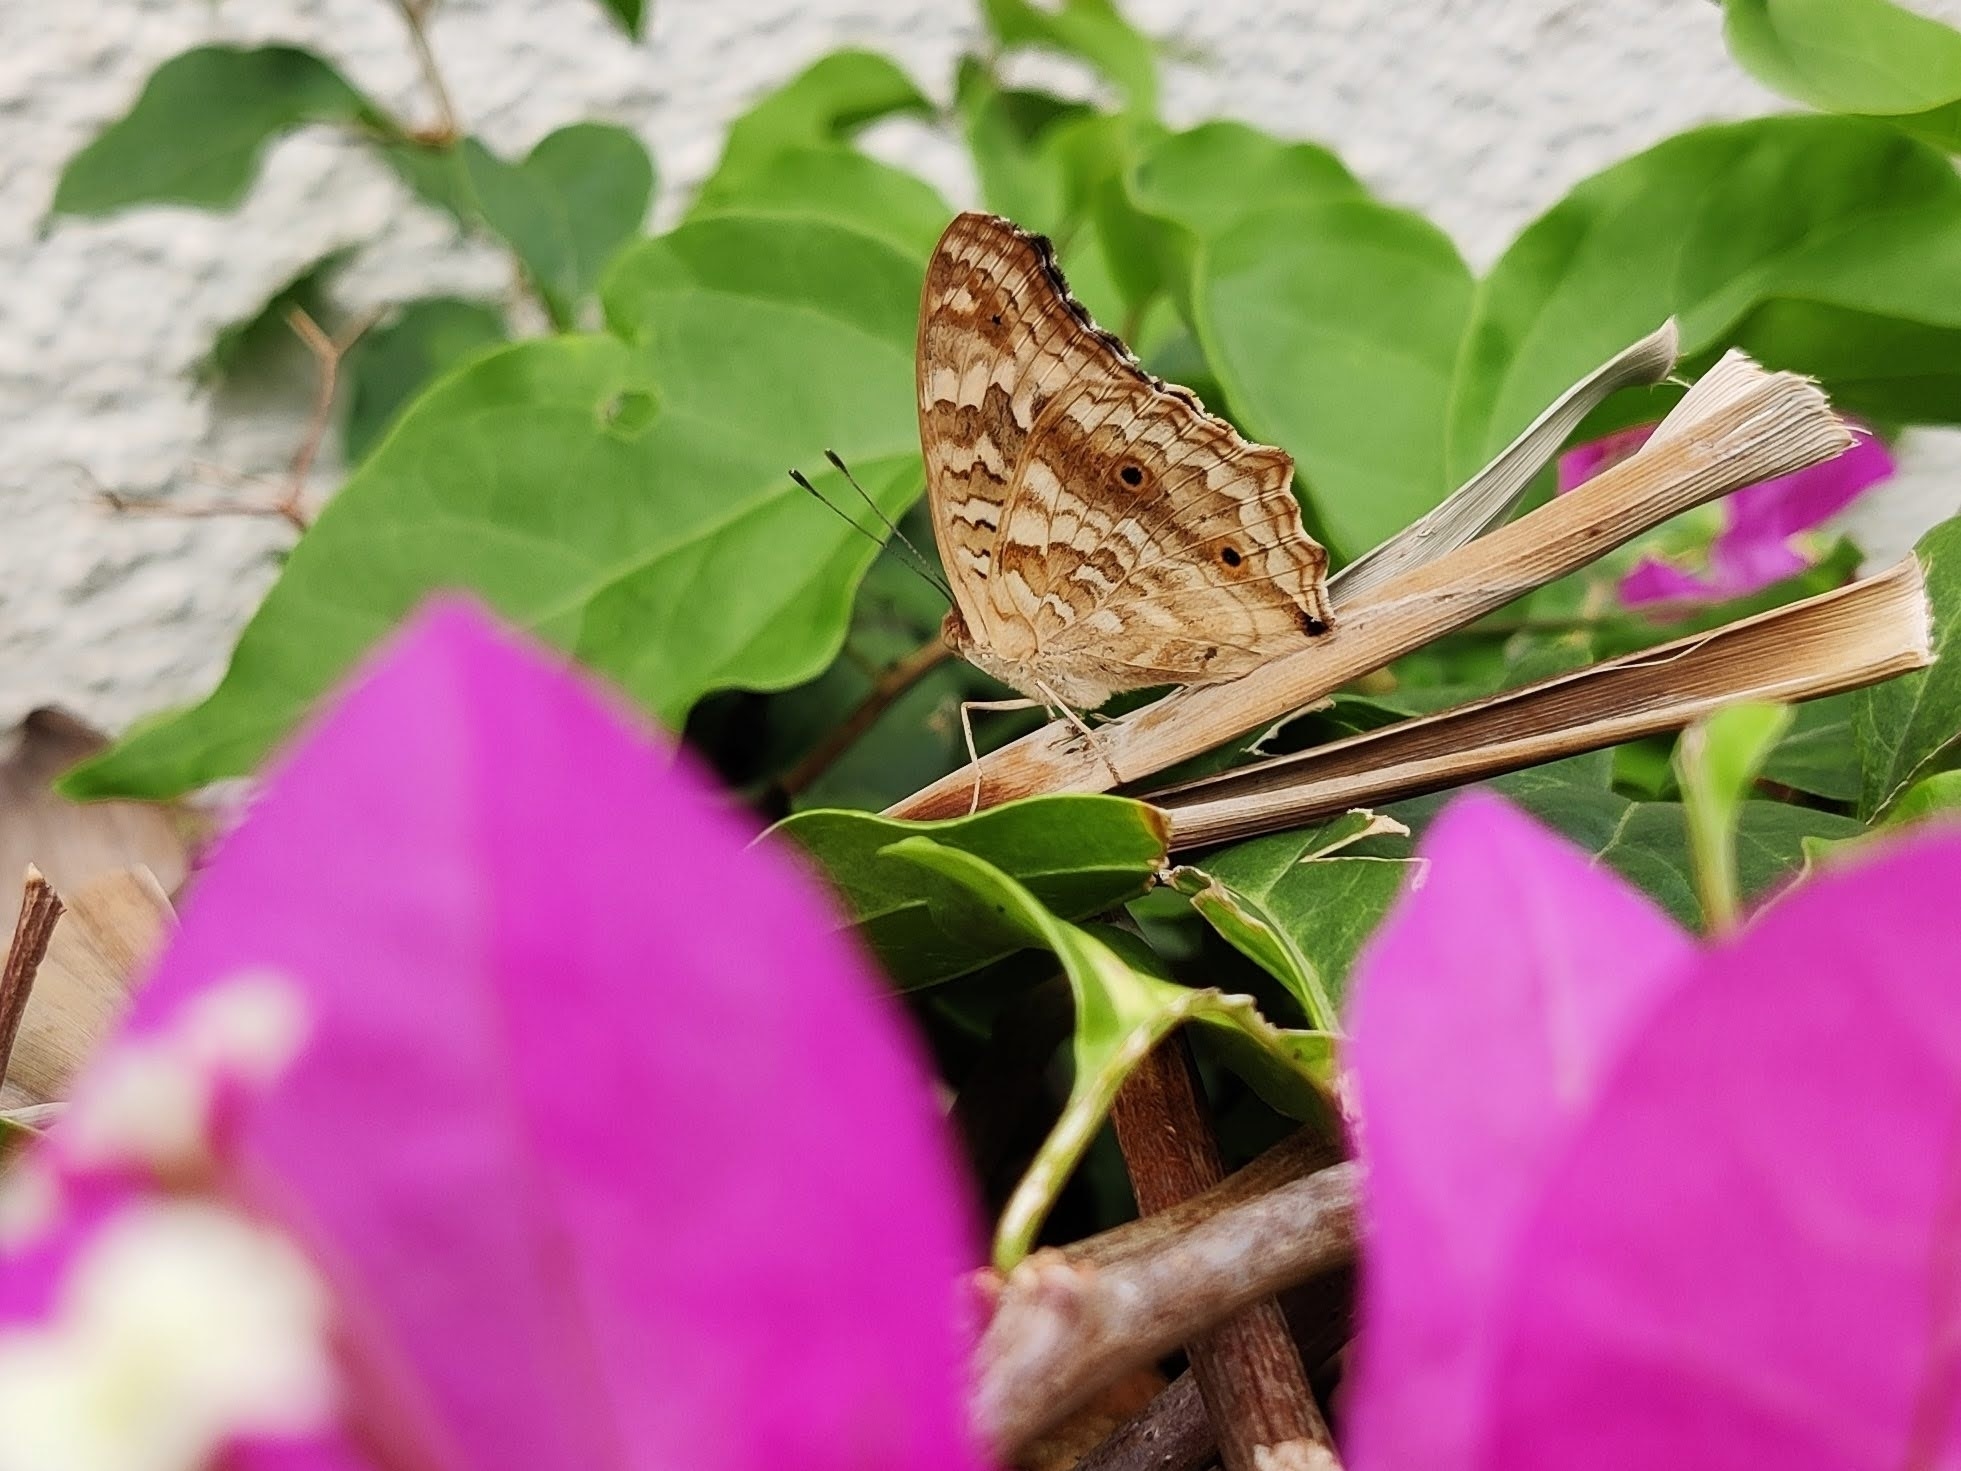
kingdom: Animalia
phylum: Arthropoda
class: Insecta
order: Lepidoptera
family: Nymphalidae
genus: Junonia
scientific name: Junonia lemonias
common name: Lemon pansy
